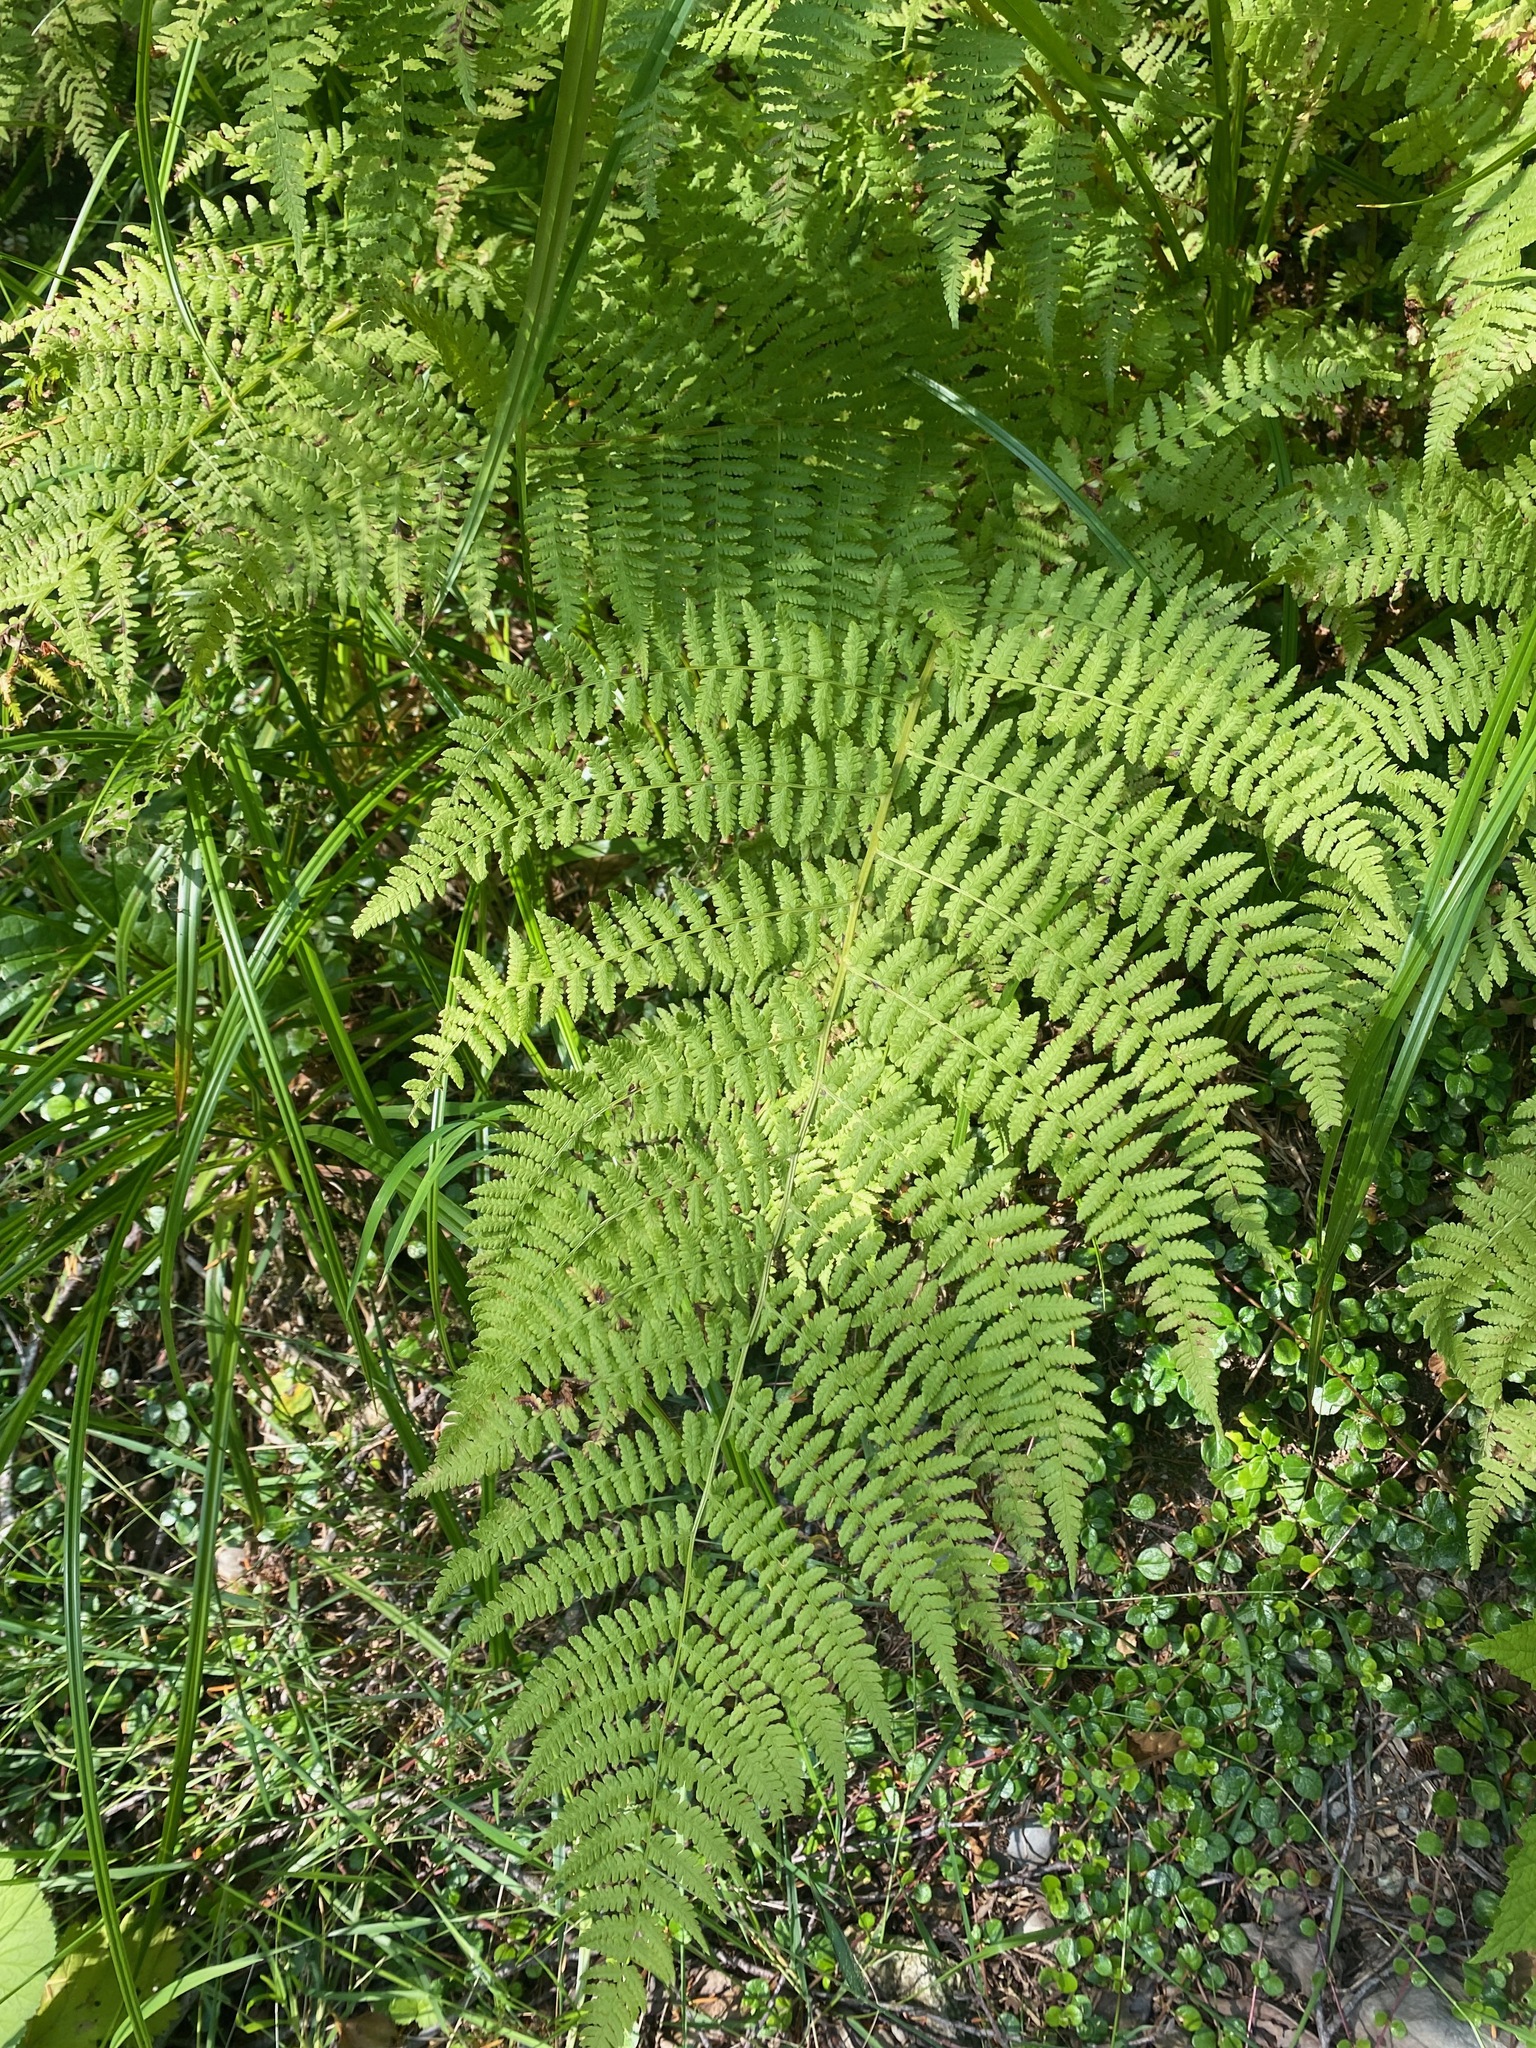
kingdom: Plantae
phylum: Tracheophyta
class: Polypodiopsida
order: Polypodiales
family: Athyriaceae
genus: Athyrium
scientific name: Athyrium filix-femina
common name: Lady fern
